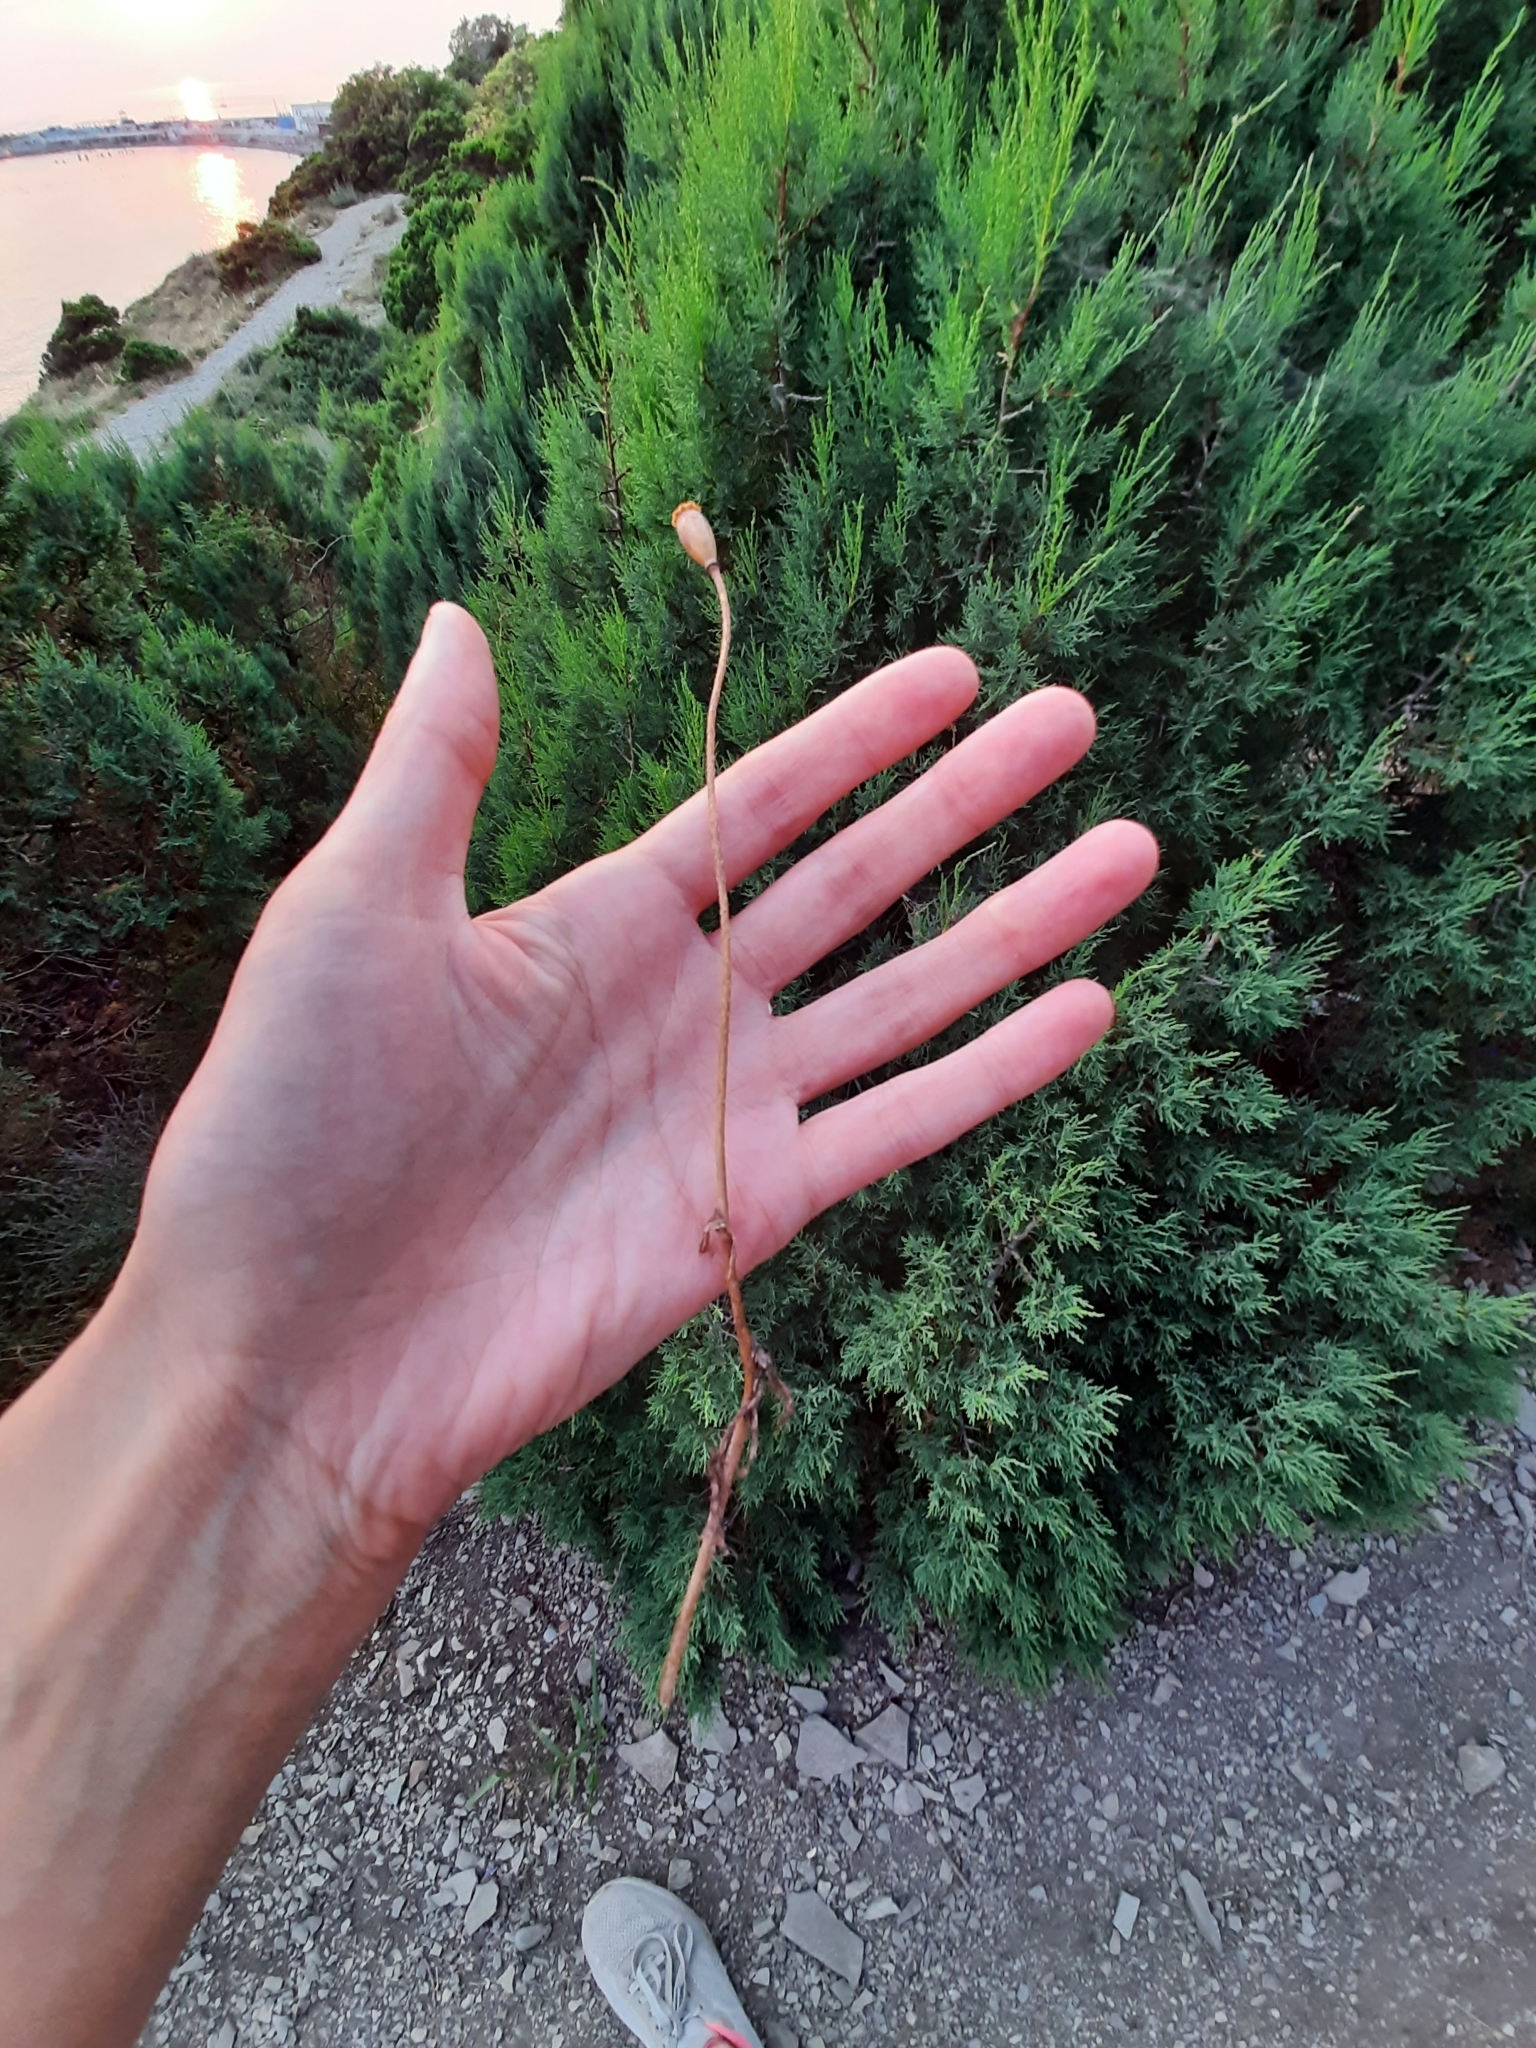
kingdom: Plantae
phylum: Tracheophyta
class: Magnoliopsida
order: Ranunculales
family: Papaveraceae
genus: Papaver
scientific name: Papaver dubium
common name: Long-headed poppy
